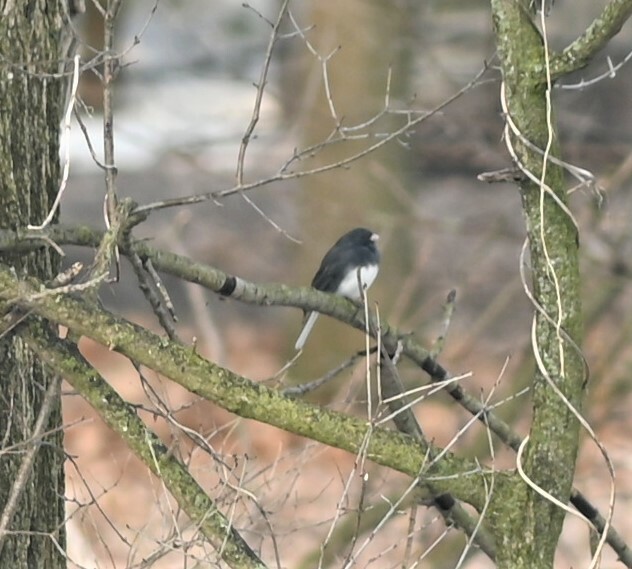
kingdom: Animalia
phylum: Chordata
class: Aves
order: Passeriformes
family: Passerellidae
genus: Junco
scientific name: Junco hyemalis
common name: Dark-eyed junco
